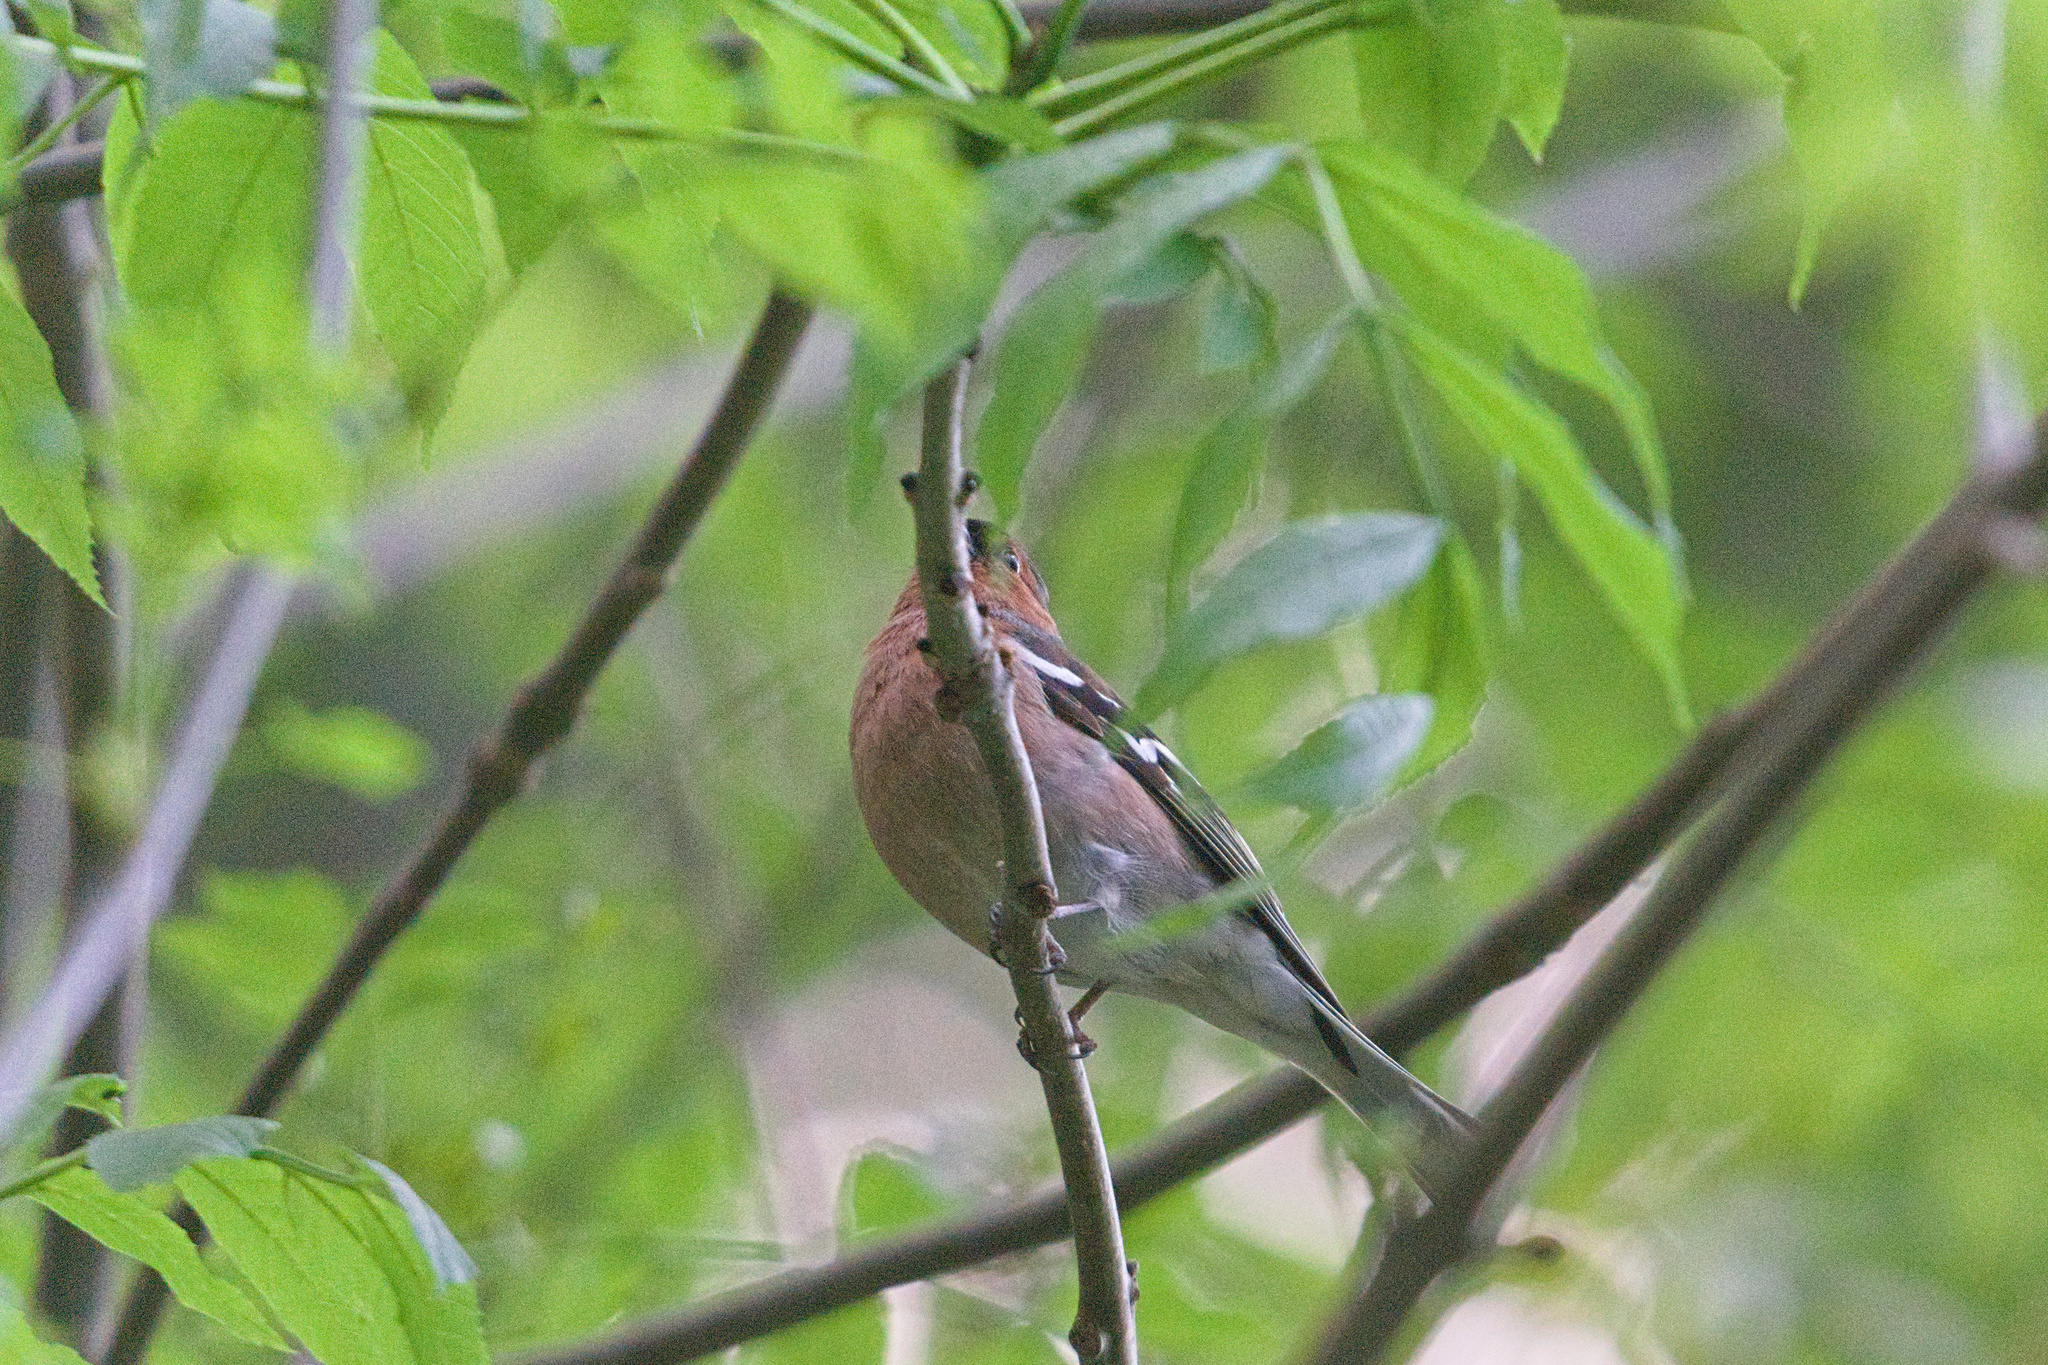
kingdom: Animalia
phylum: Chordata
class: Aves
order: Passeriformes
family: Fringillidae
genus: Fringilla
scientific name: Fringilla coelebs
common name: Common chaffinch
